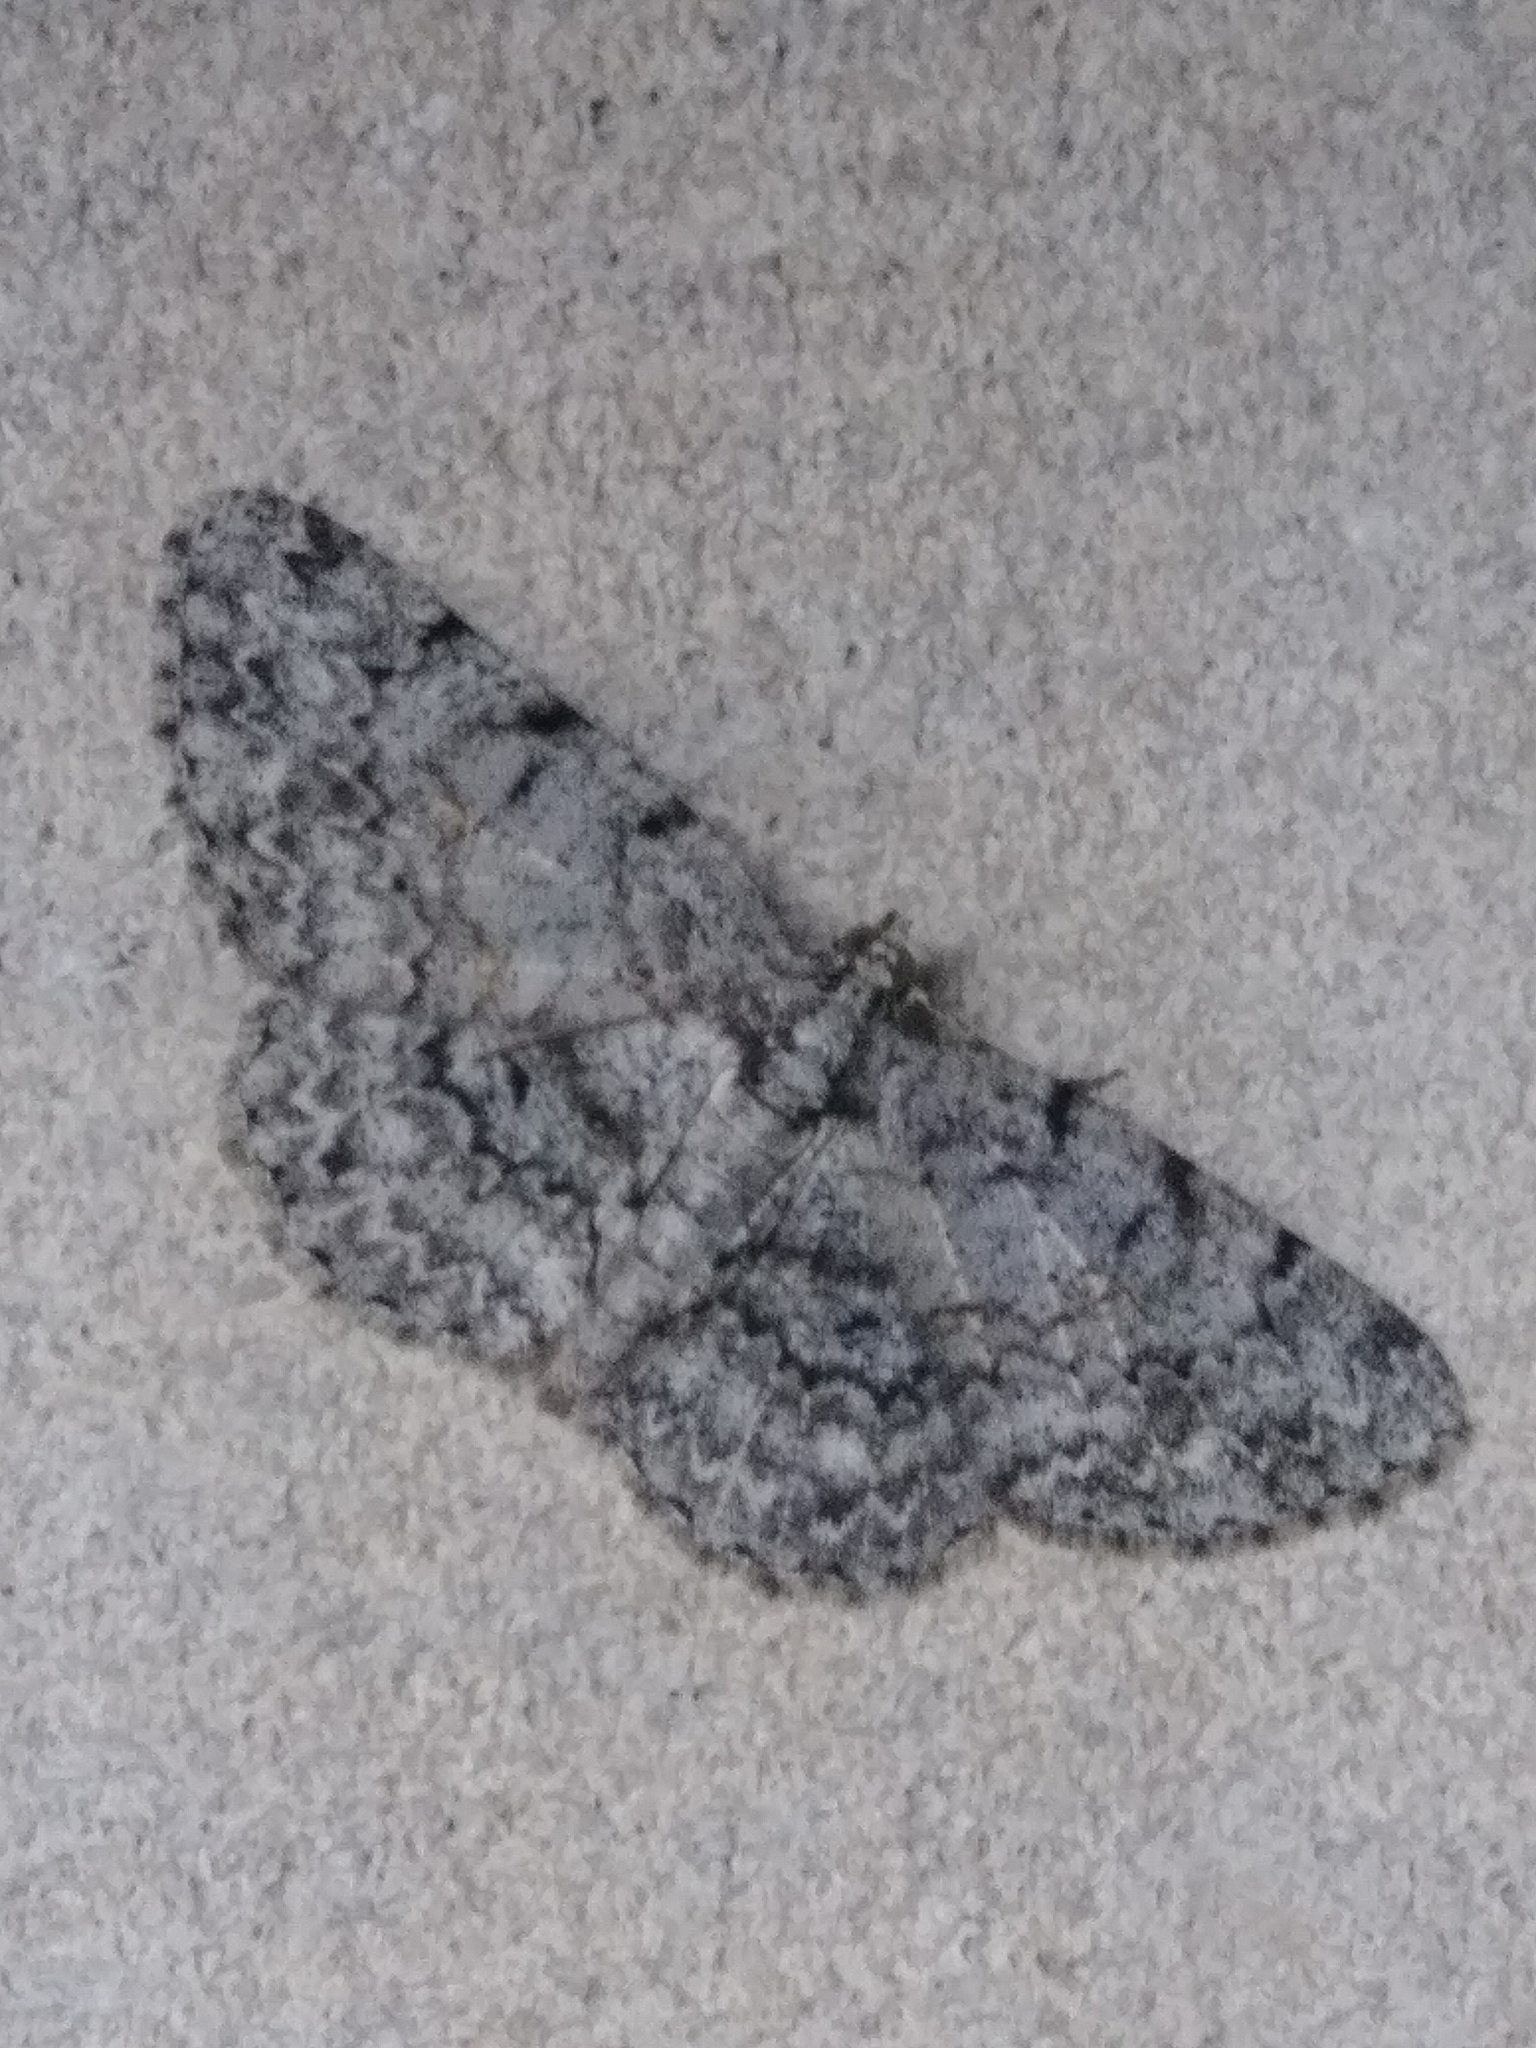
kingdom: Animalia
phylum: Arthropoda
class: Insecta
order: Lepidoptera
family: Geometridae
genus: Protoboarmia
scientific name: Protoboarmia porcelaria
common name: Porcelain gray
